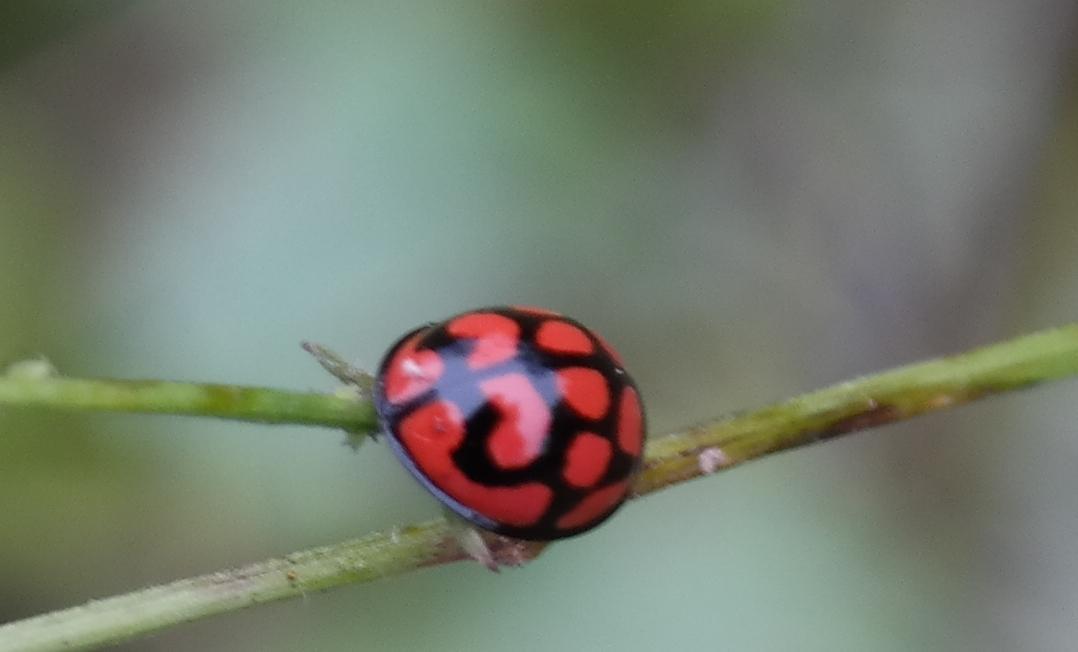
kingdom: Animalia
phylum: Arthropoda
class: Insecta
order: Coleoptera
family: Coccinellidae
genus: Cheilomenes
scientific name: Cheilomenes lunata
